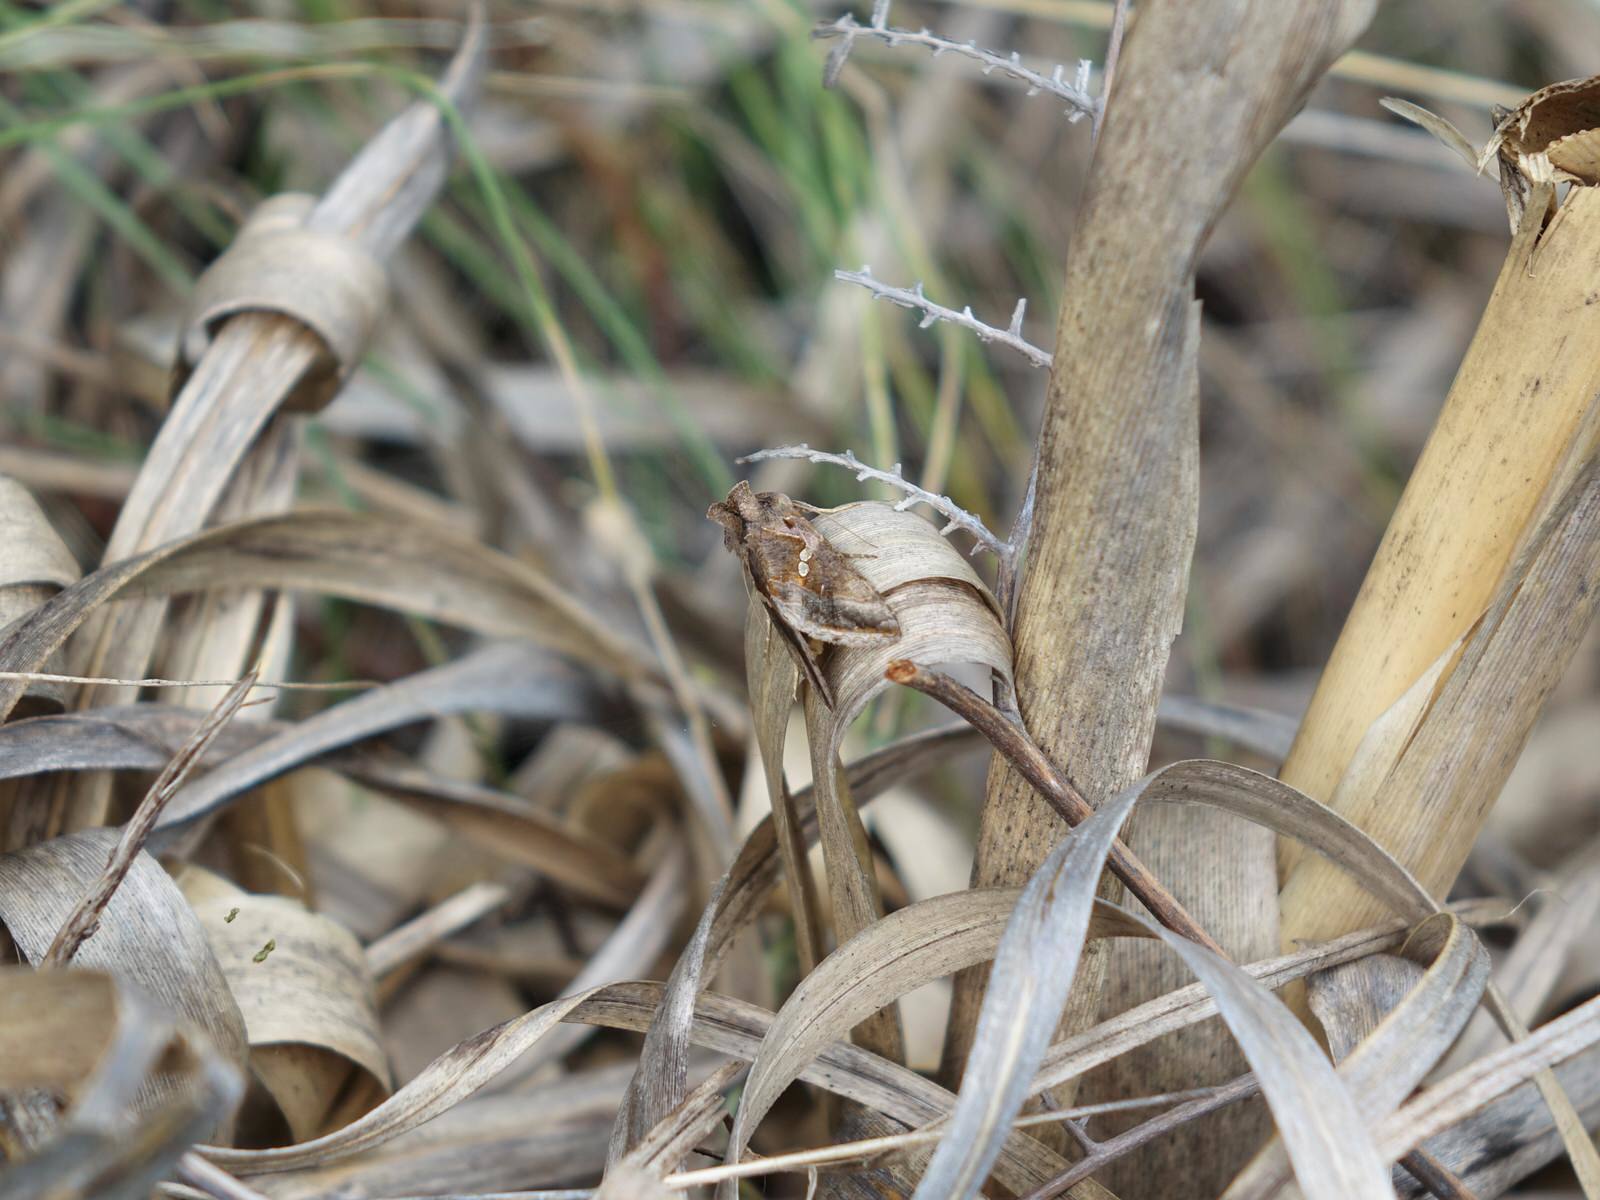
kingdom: Animalia
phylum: Arthropoda
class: Insecta
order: Lepidoptera
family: Noctuidae
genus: Chrysodeixis
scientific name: Chrysodeixis eriosoma
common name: Green garden looper
